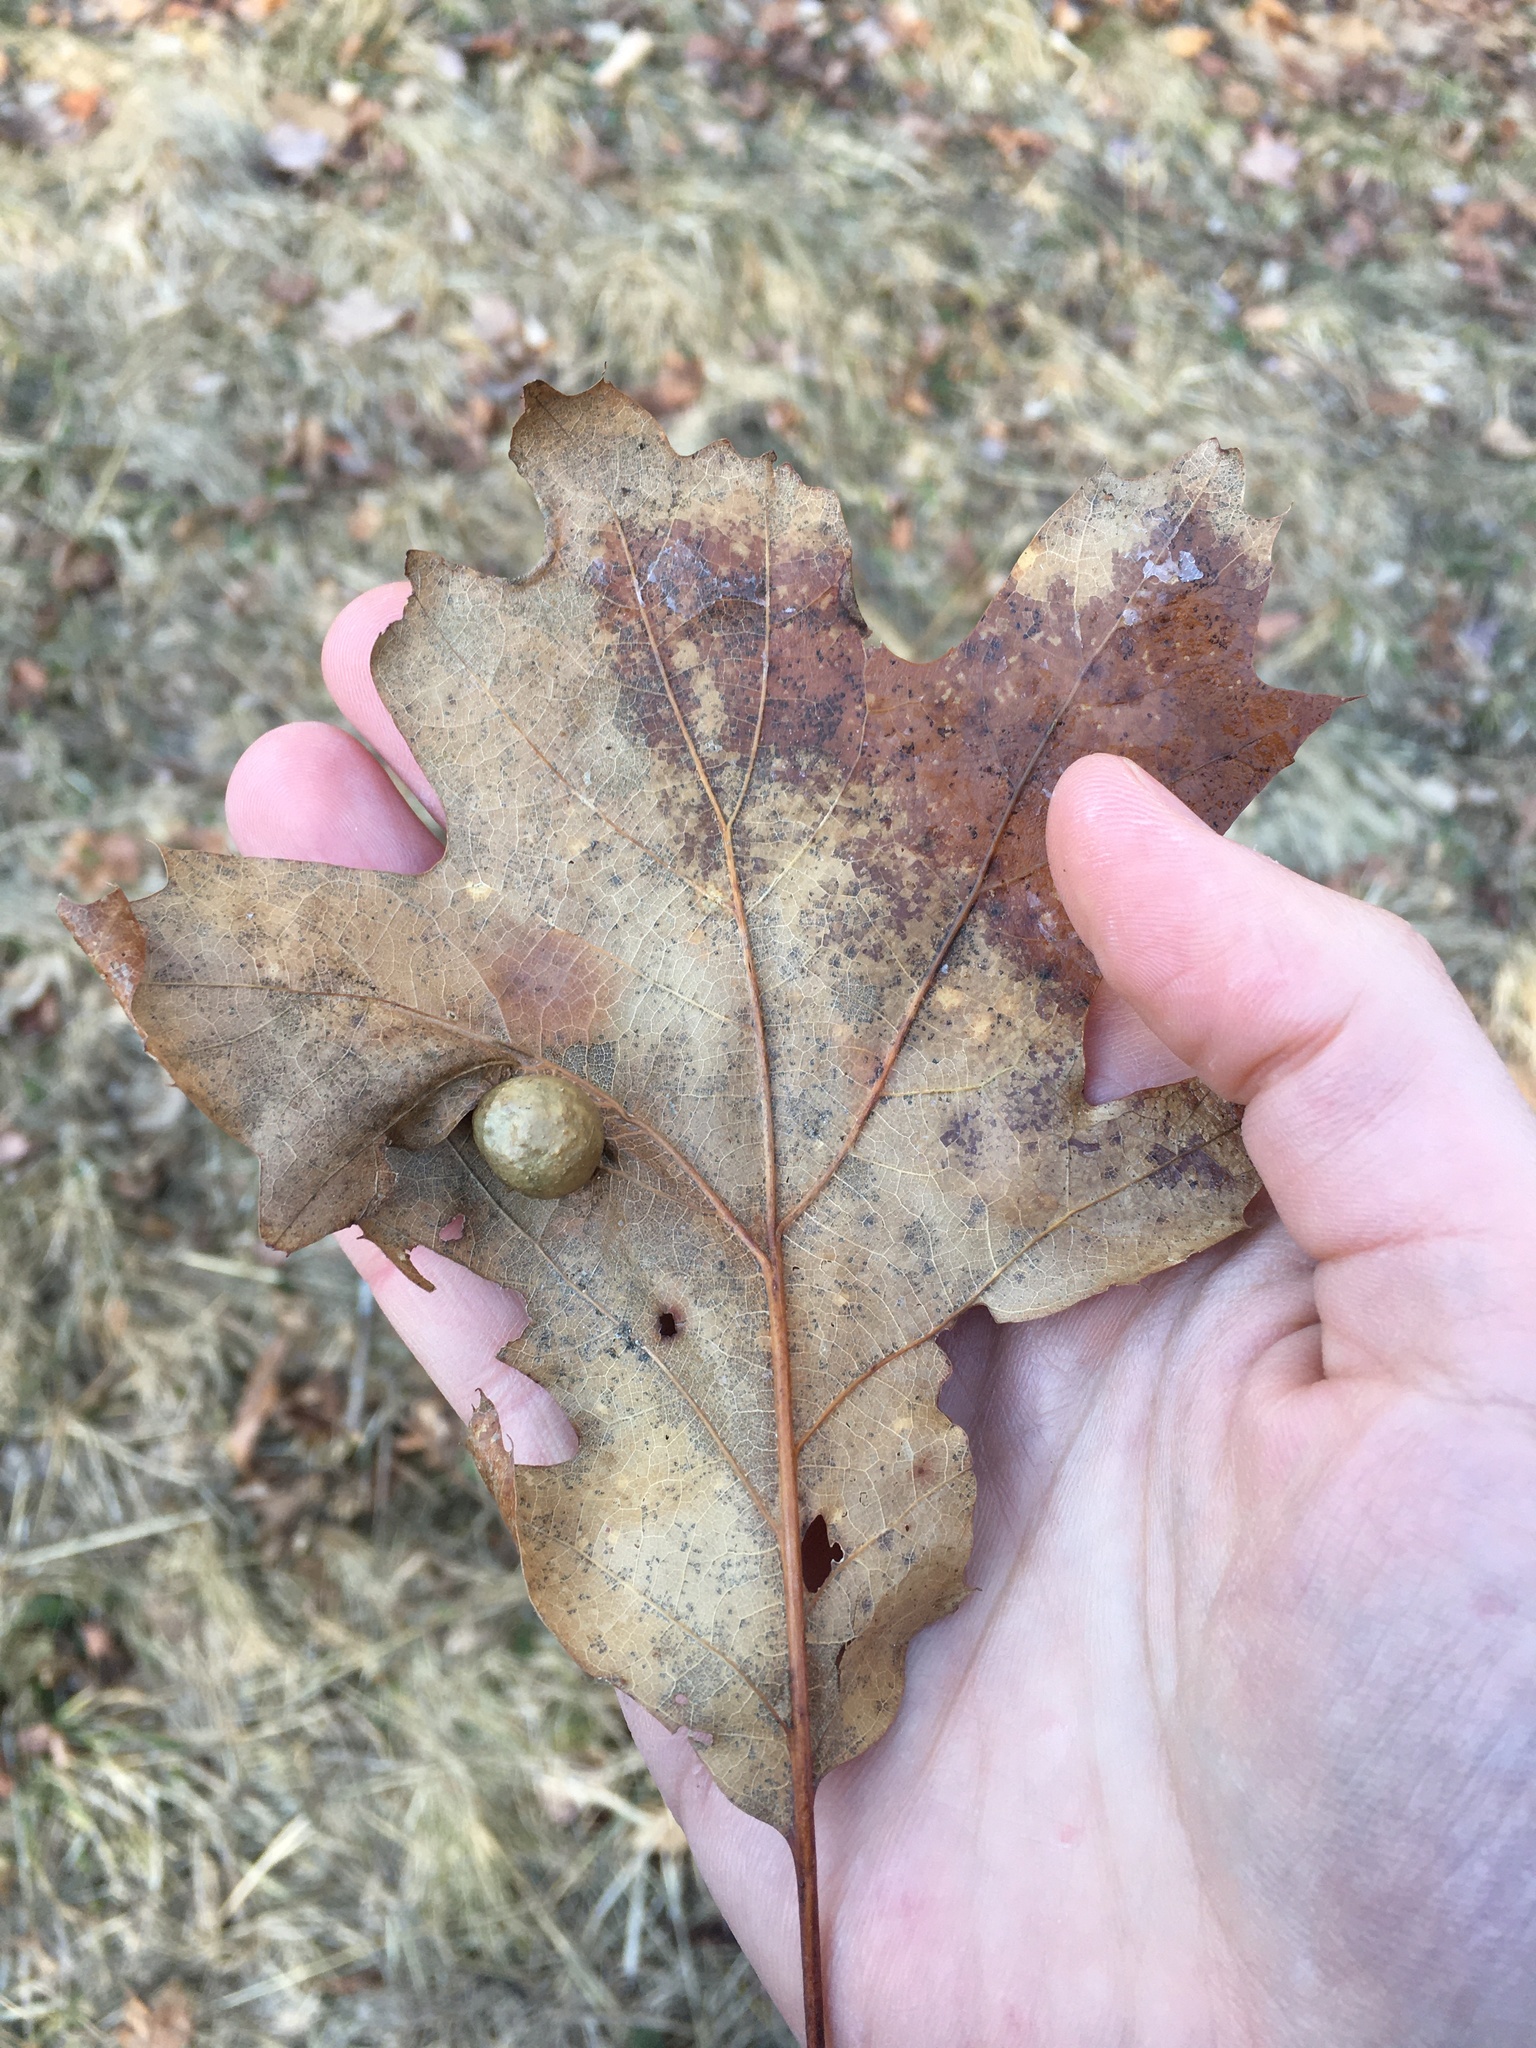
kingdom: Animalia
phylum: Arthropoda
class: Insecta
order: Hymenoptera
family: Cynipidae
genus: Amphibolips
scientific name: Amphibolips
